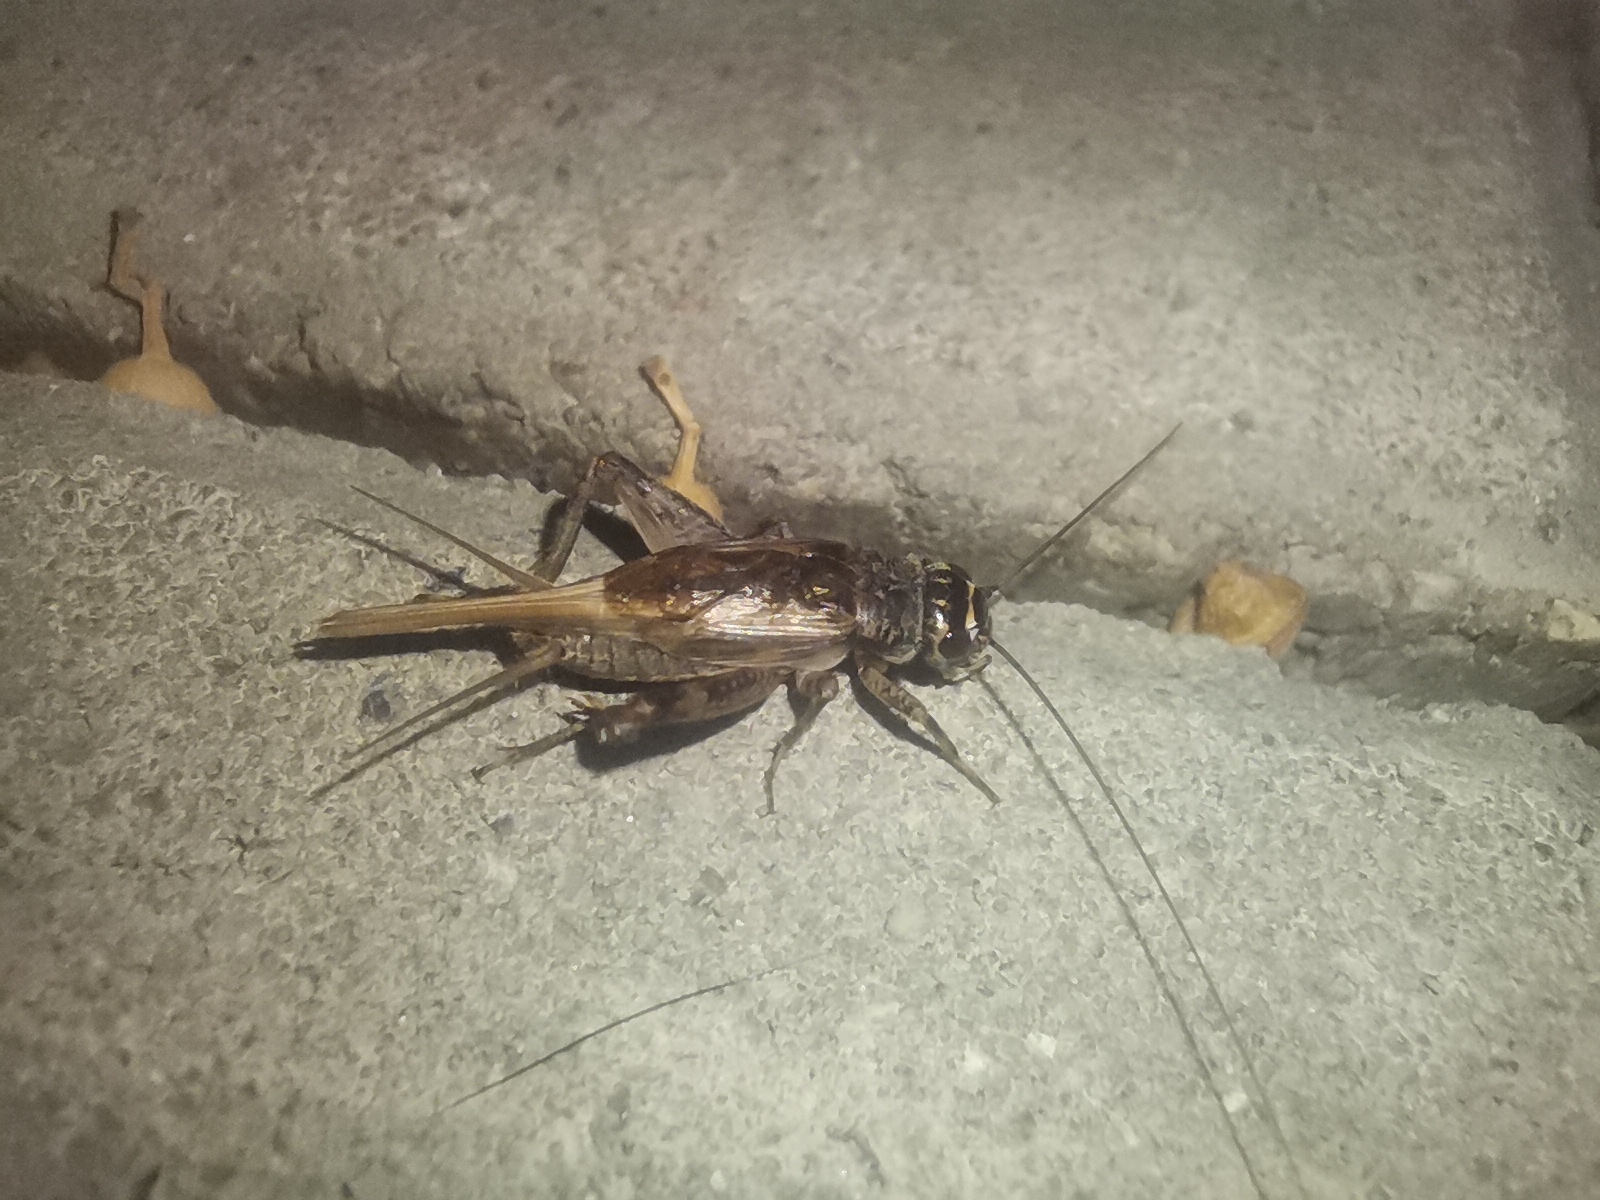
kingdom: Animalia
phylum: Arthropoda
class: Insecta
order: Orthoptera
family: Gryllidae
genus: Eumodicogryllus
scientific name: Eumodicogryllus bordigalensis
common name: Bordeaux cricket
